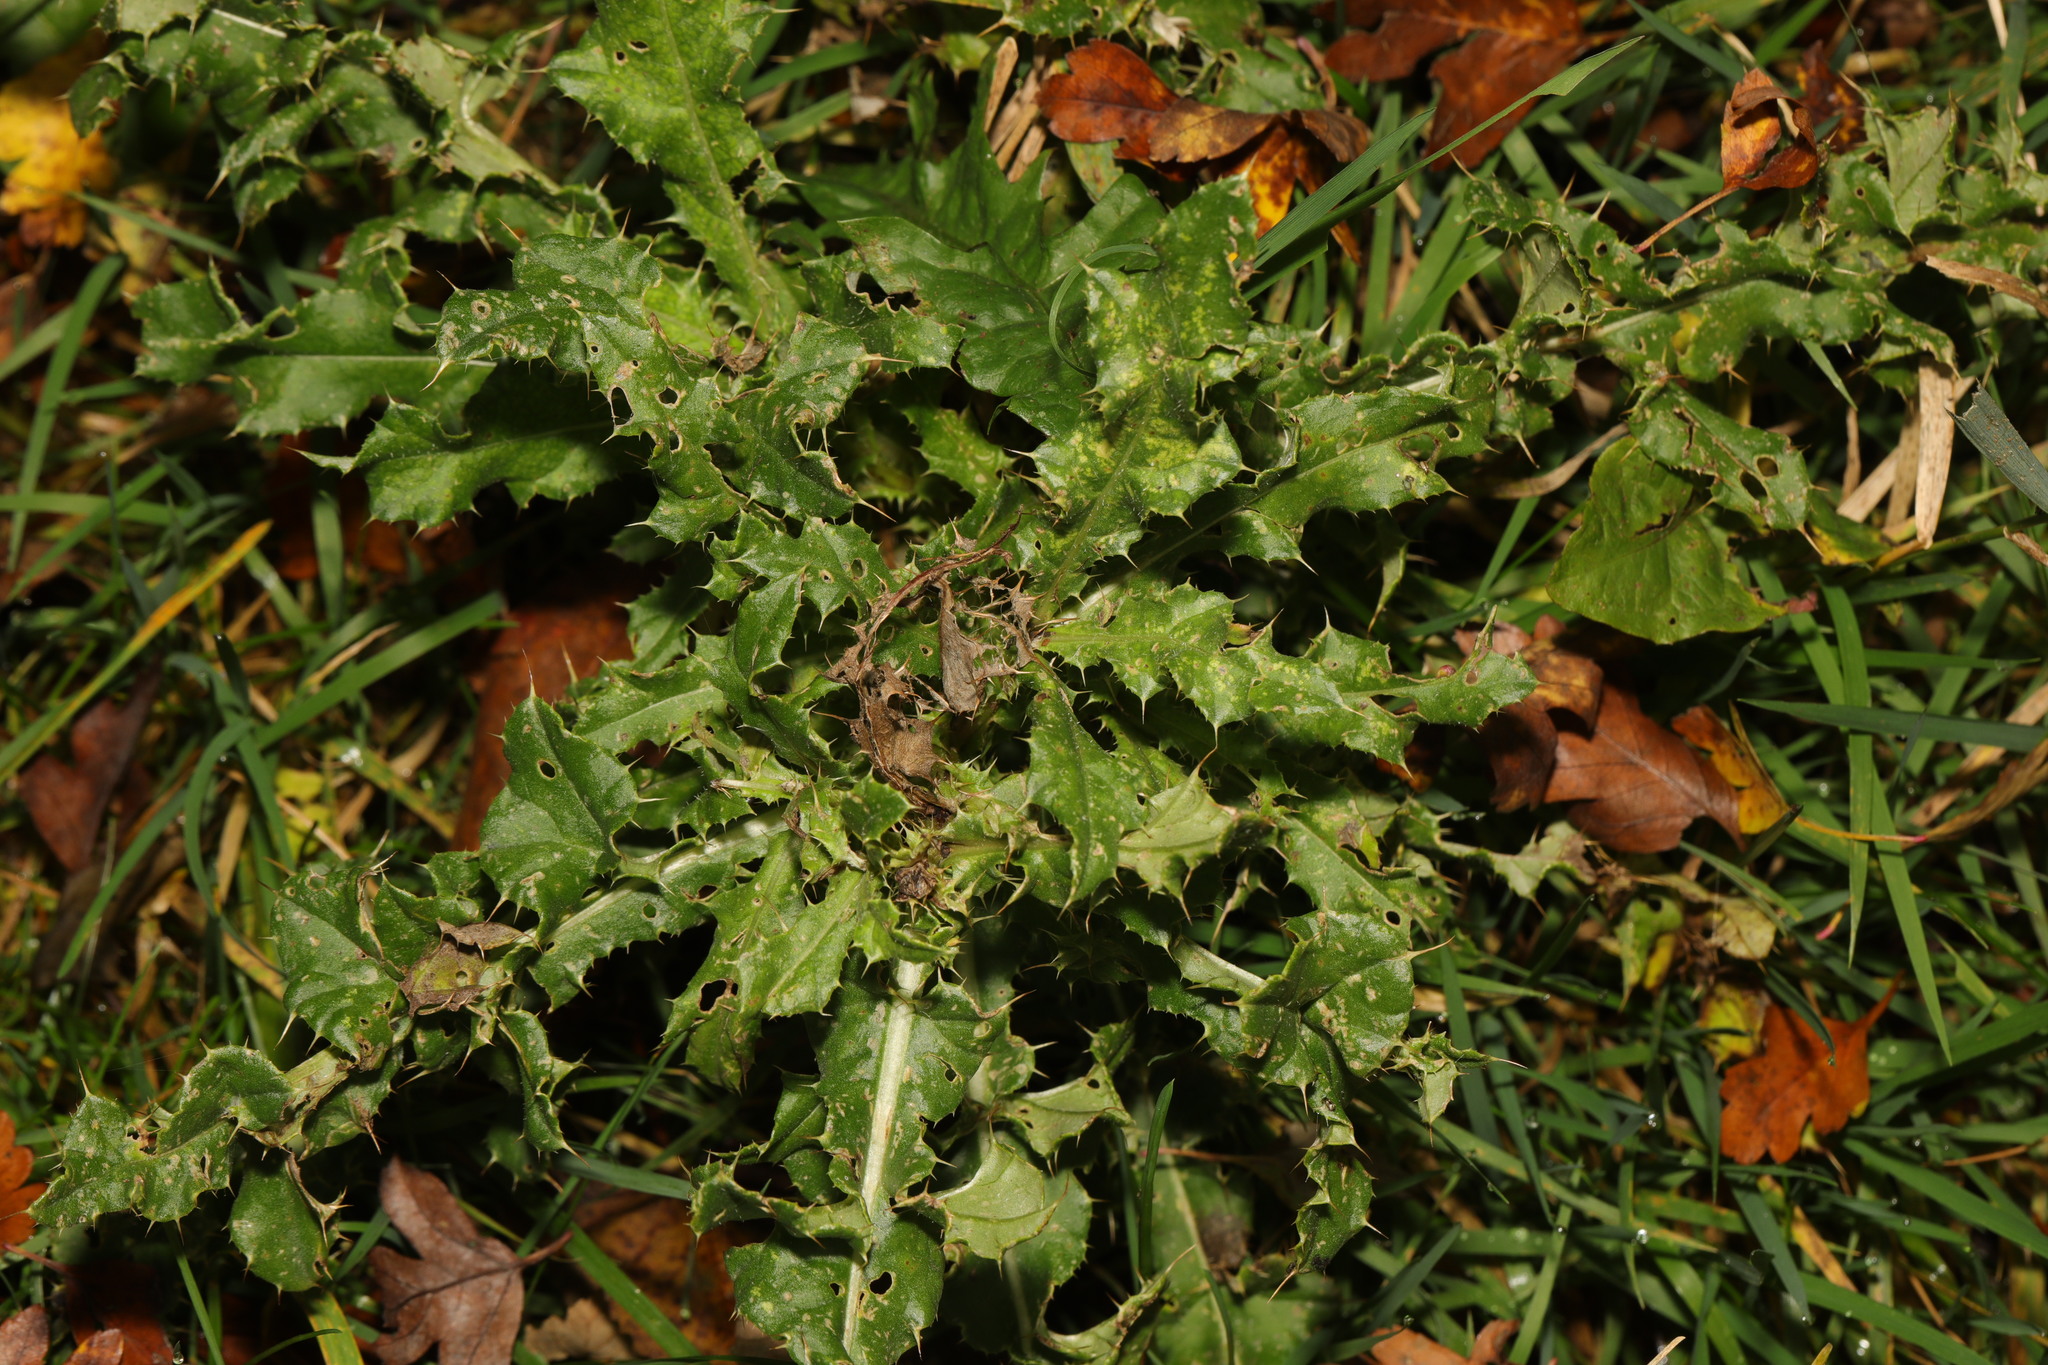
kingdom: Plantae
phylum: Tracheophyta
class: Magnoliopsida
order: Asterales
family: Asteraceae
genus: Cirsium
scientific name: Cirsium arvense
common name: Creeping thistle
